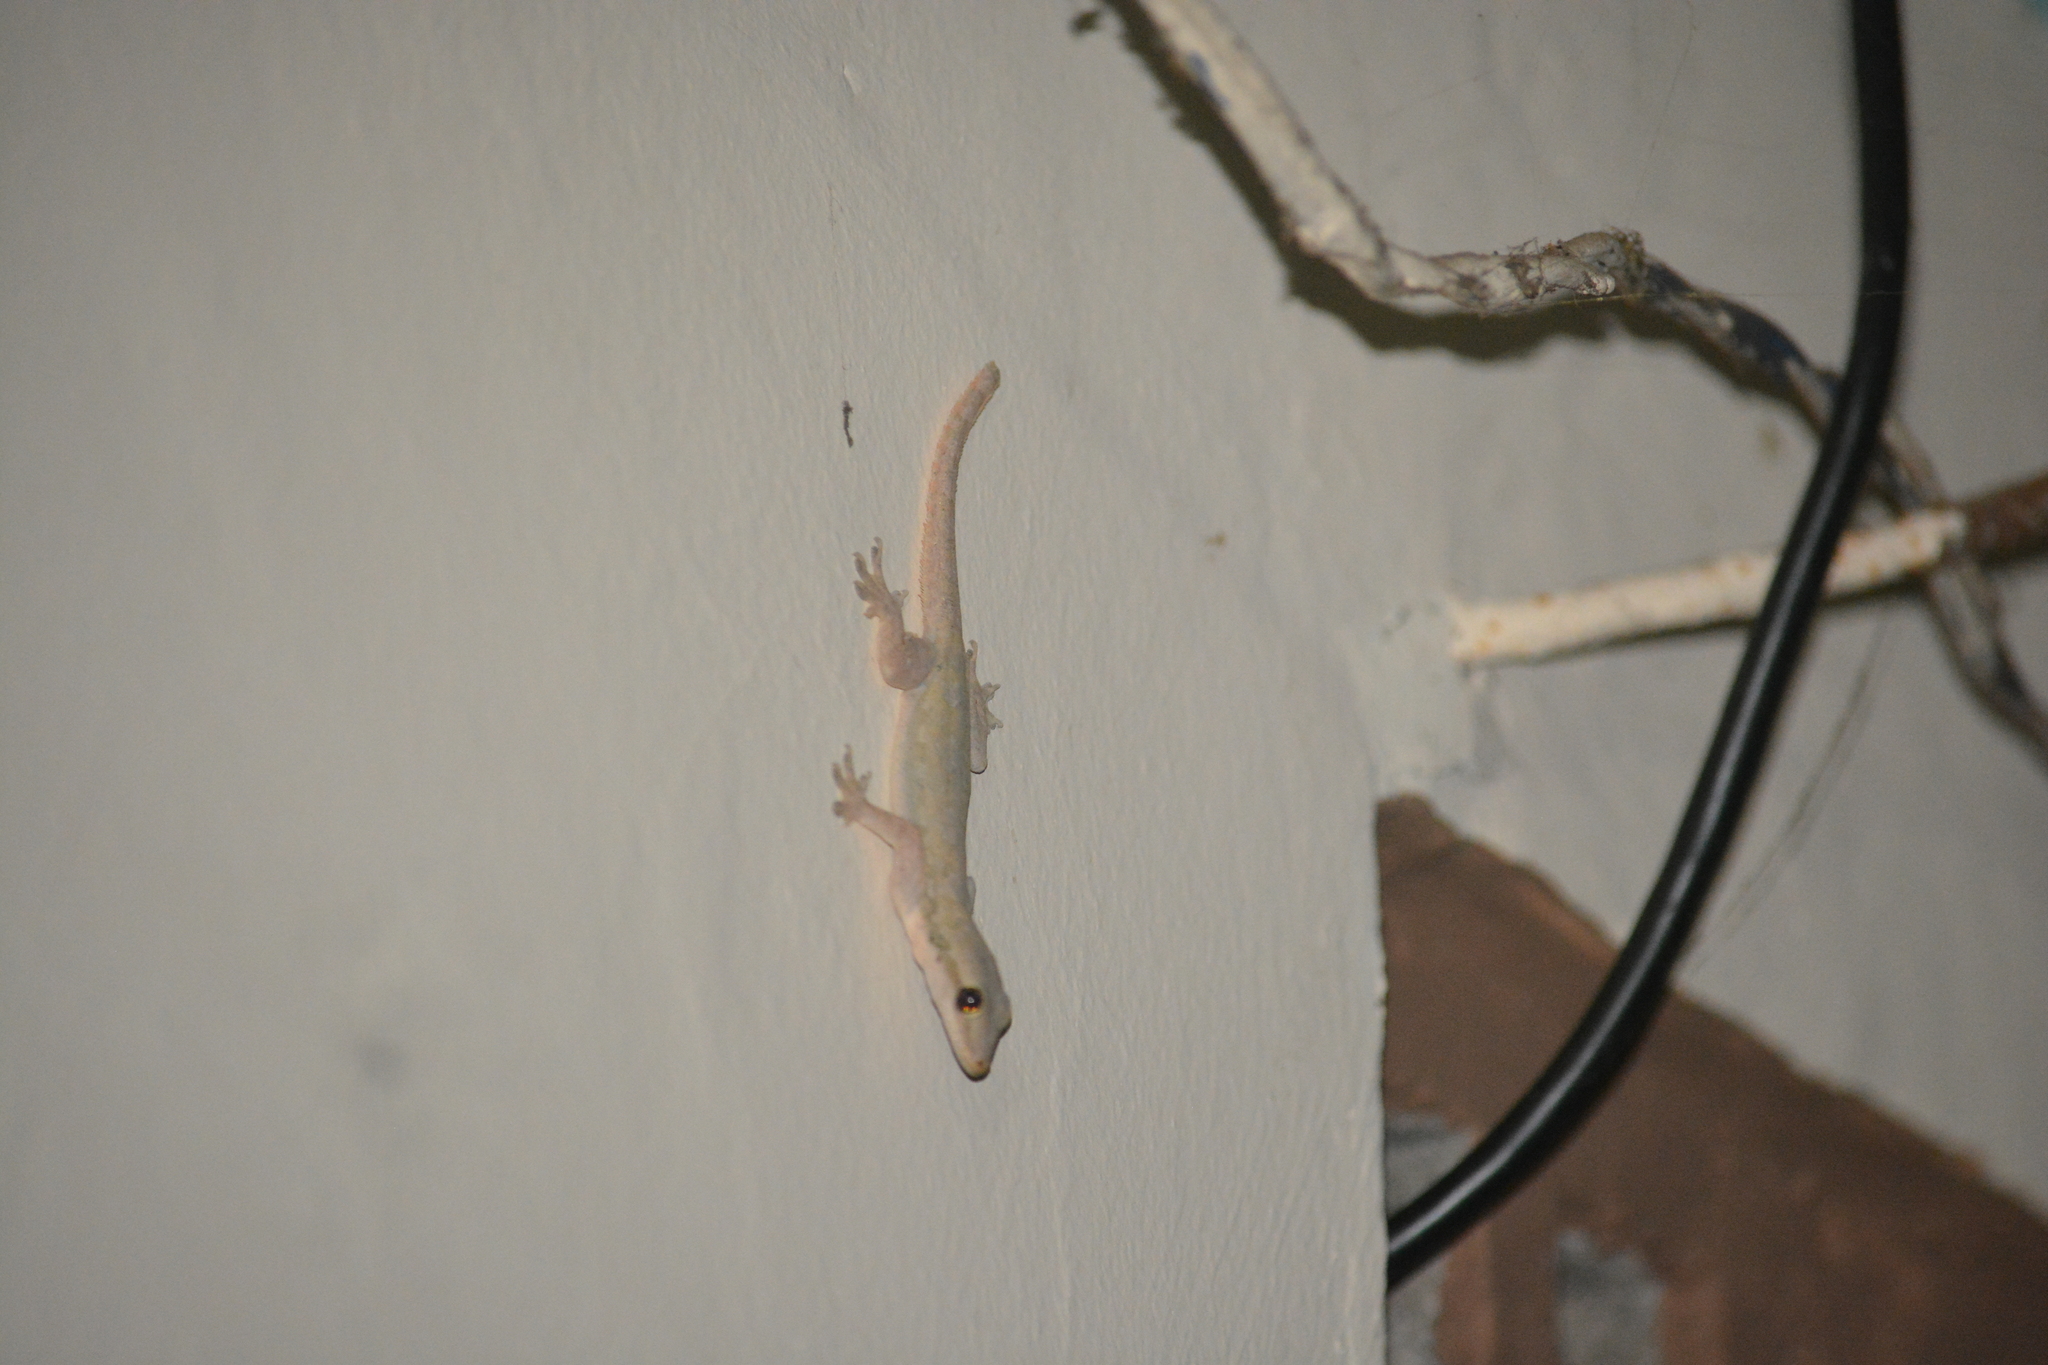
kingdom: Animalia
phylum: Chordata
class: Squamata
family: Gekkonidae
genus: Hemidactylus
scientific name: Hemidactylus platyurus
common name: Flat-tailed house gecko
